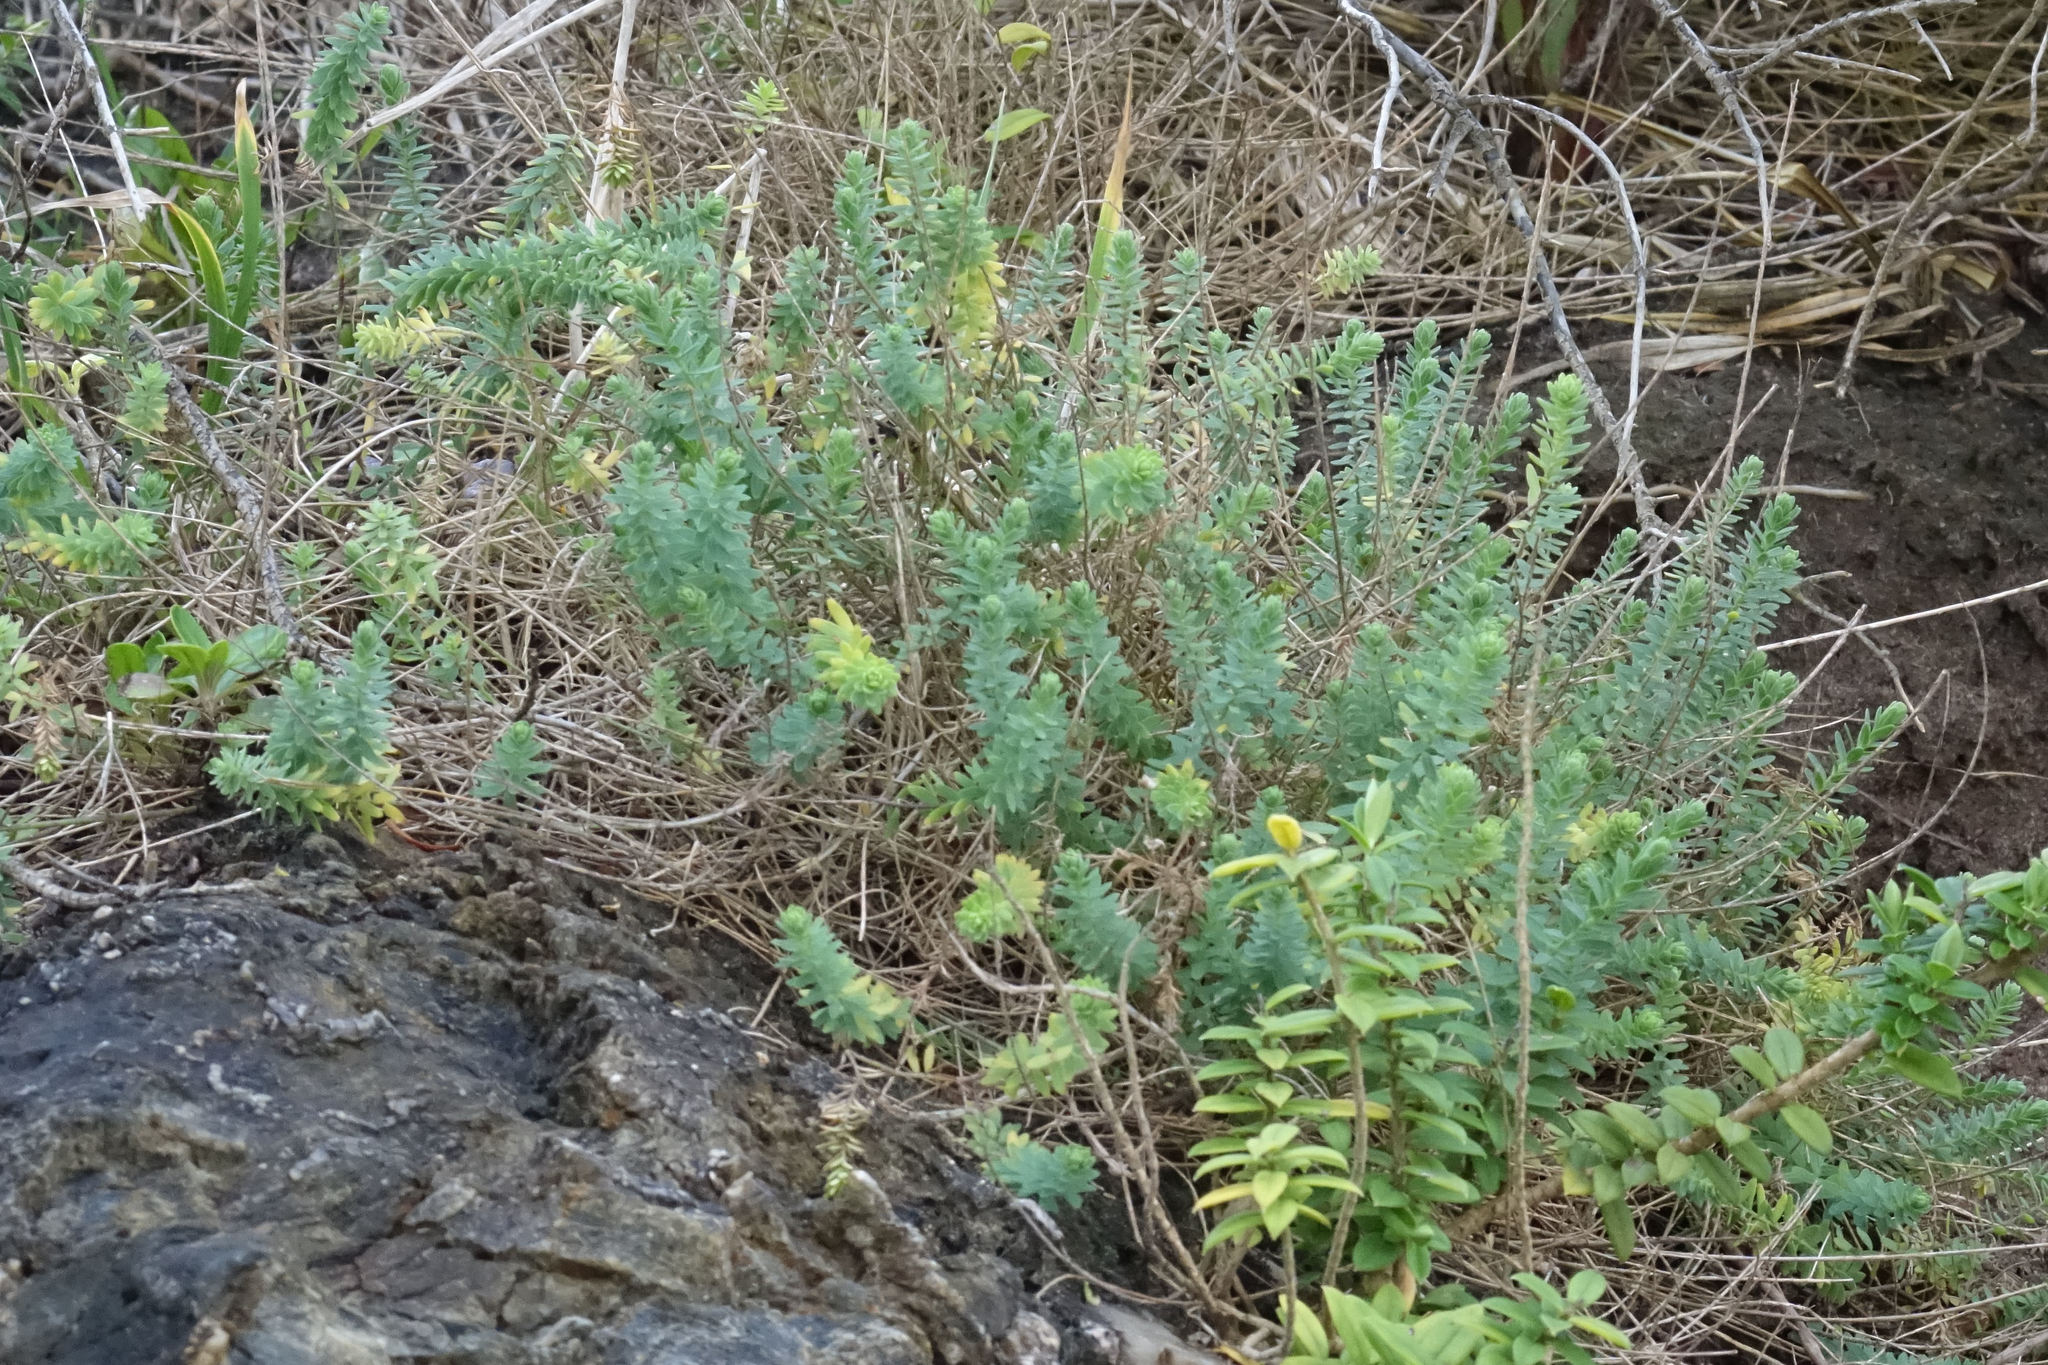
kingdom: Plantae
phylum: Tracheophyta
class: Magnoliopsida
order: Malpighiales
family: Linaceae
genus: Linum
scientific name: Linum monogynum
